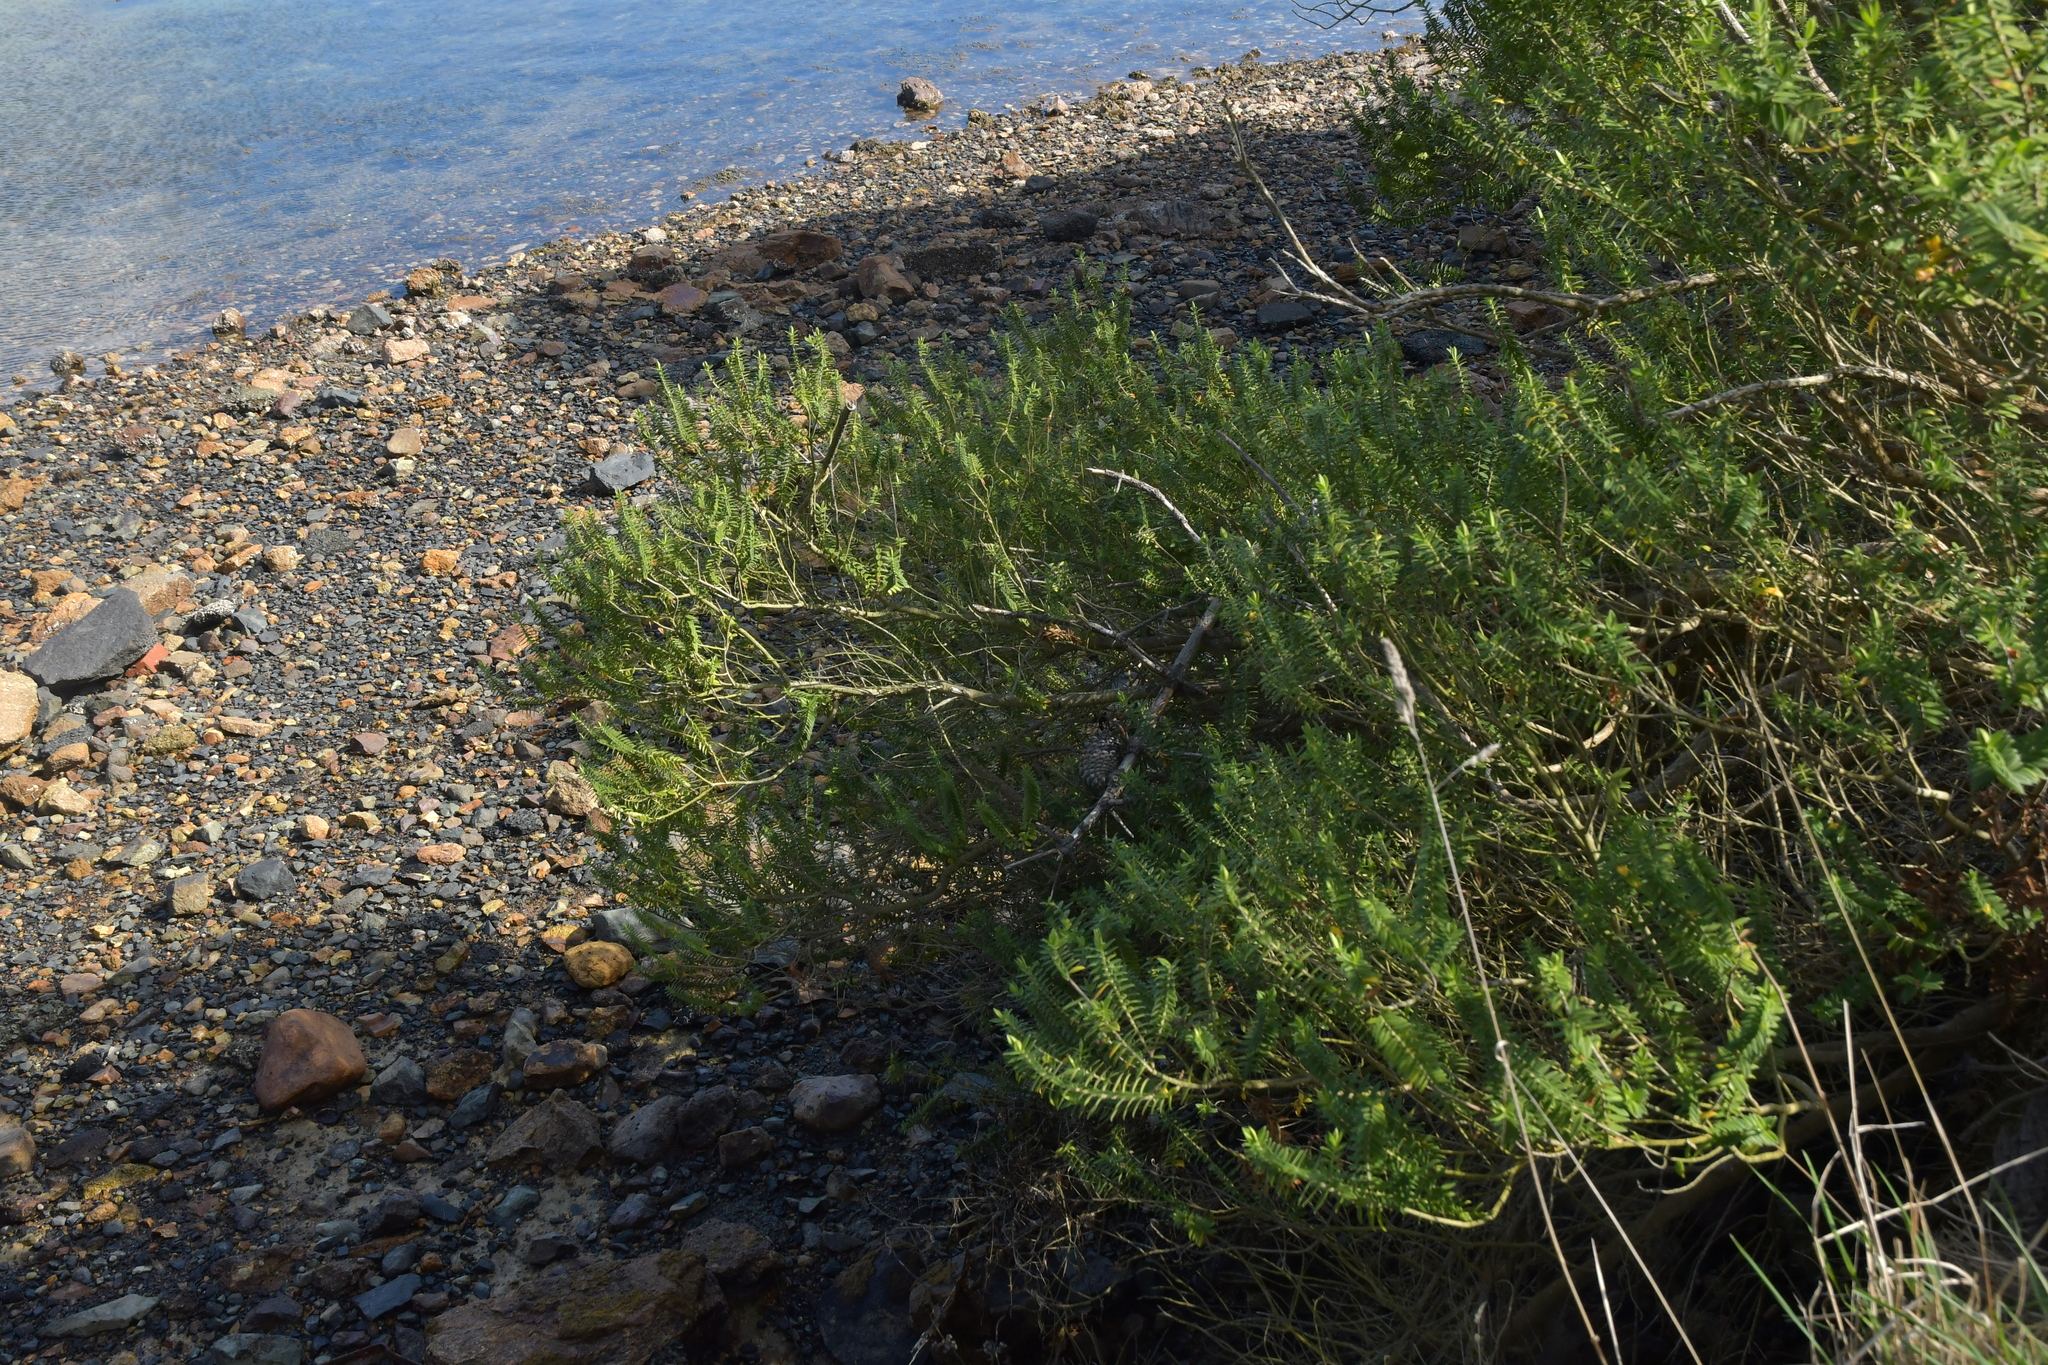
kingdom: Plantae
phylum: Tracheophyta
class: Magnoliopsida
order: Lamiales
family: Plantaginaceae
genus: Veronica
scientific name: Veronica elliptica
